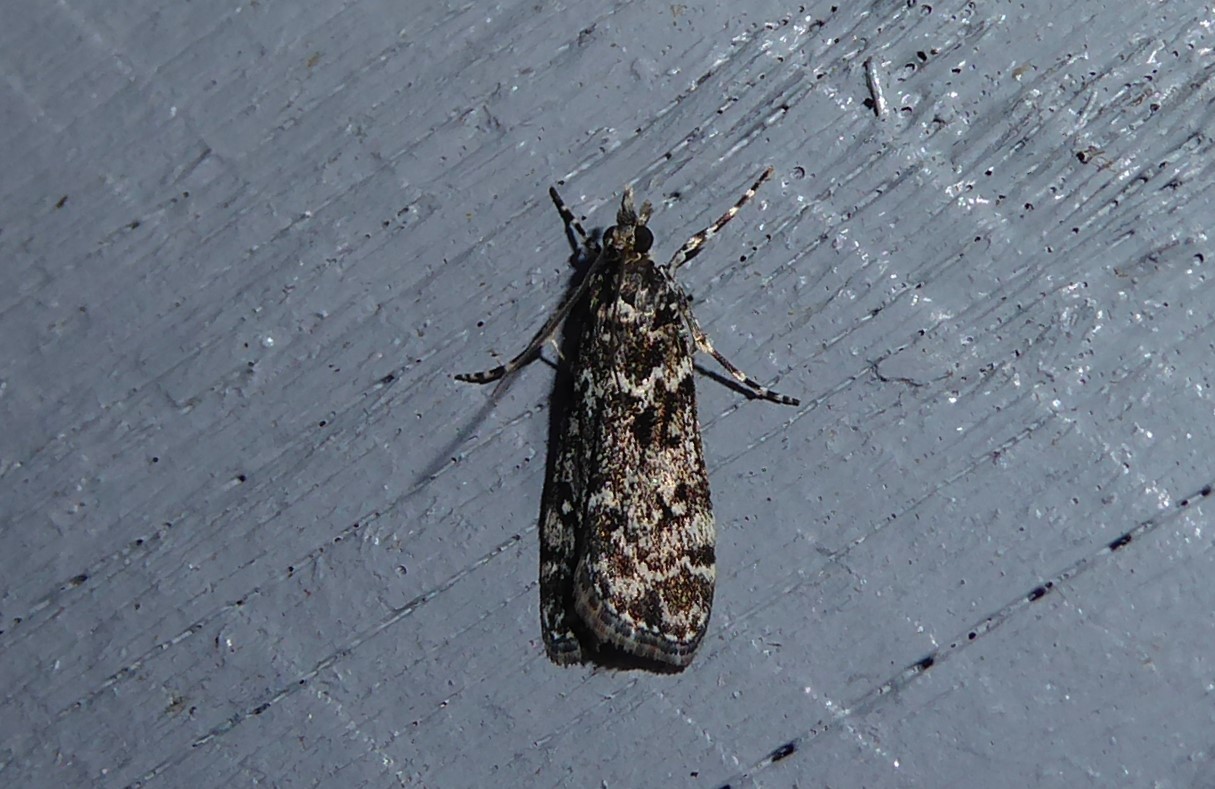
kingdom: Animalia
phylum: Arthropoda
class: Insecta
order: Lepidoptera
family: Crambidae
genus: Eudonia
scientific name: Eudonia philerga
